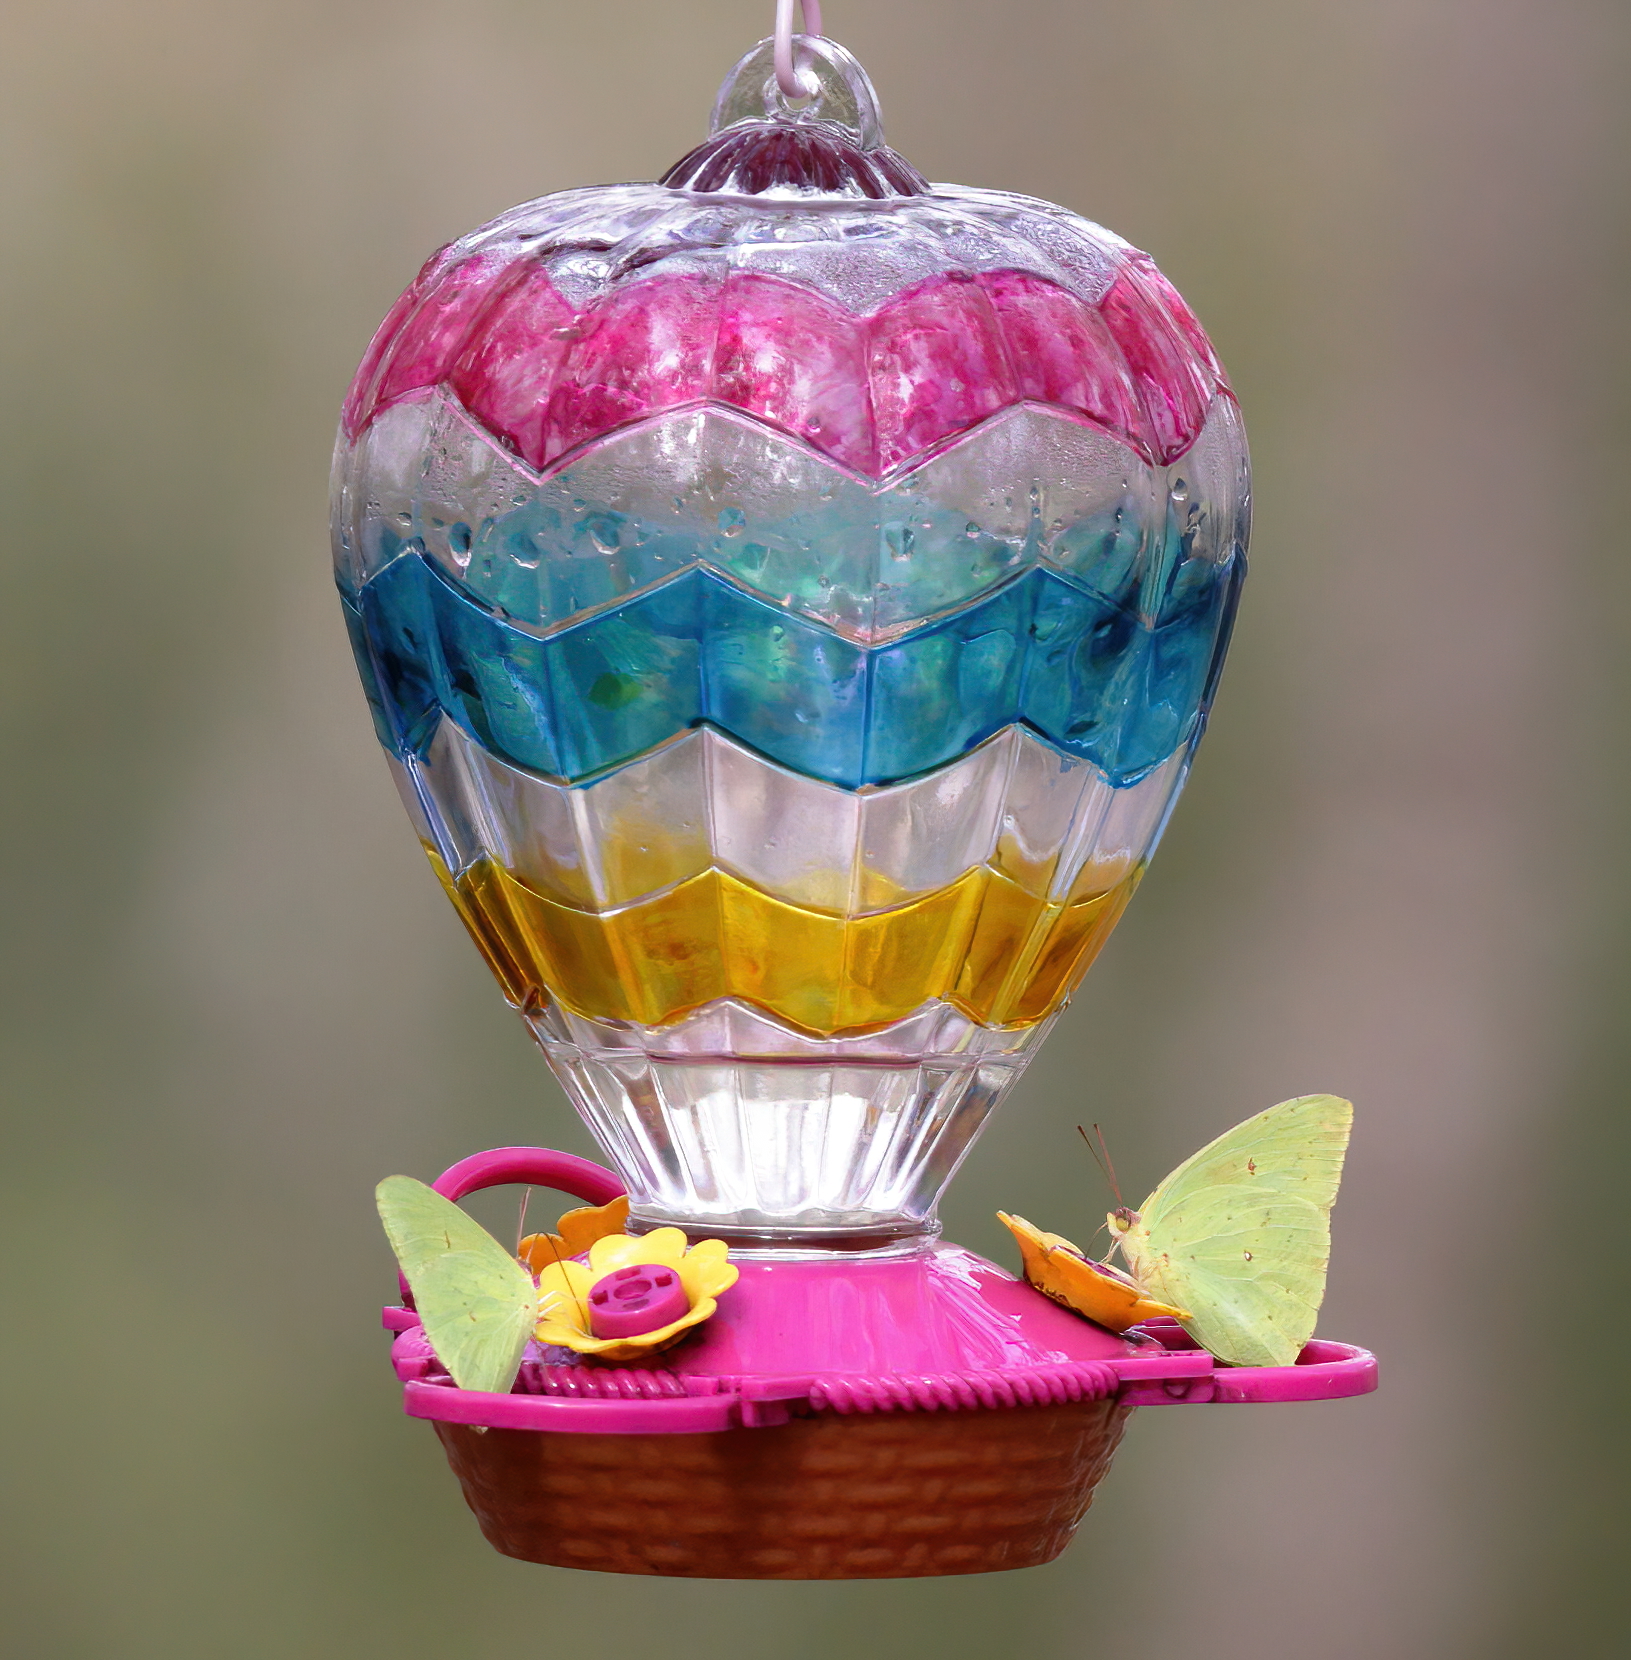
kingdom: Animalia
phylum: Arthropoda
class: Insecta
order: Lepidoptera
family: Pieridae
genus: Phoebis
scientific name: Phoebis sennae
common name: Cloudless sulphur
